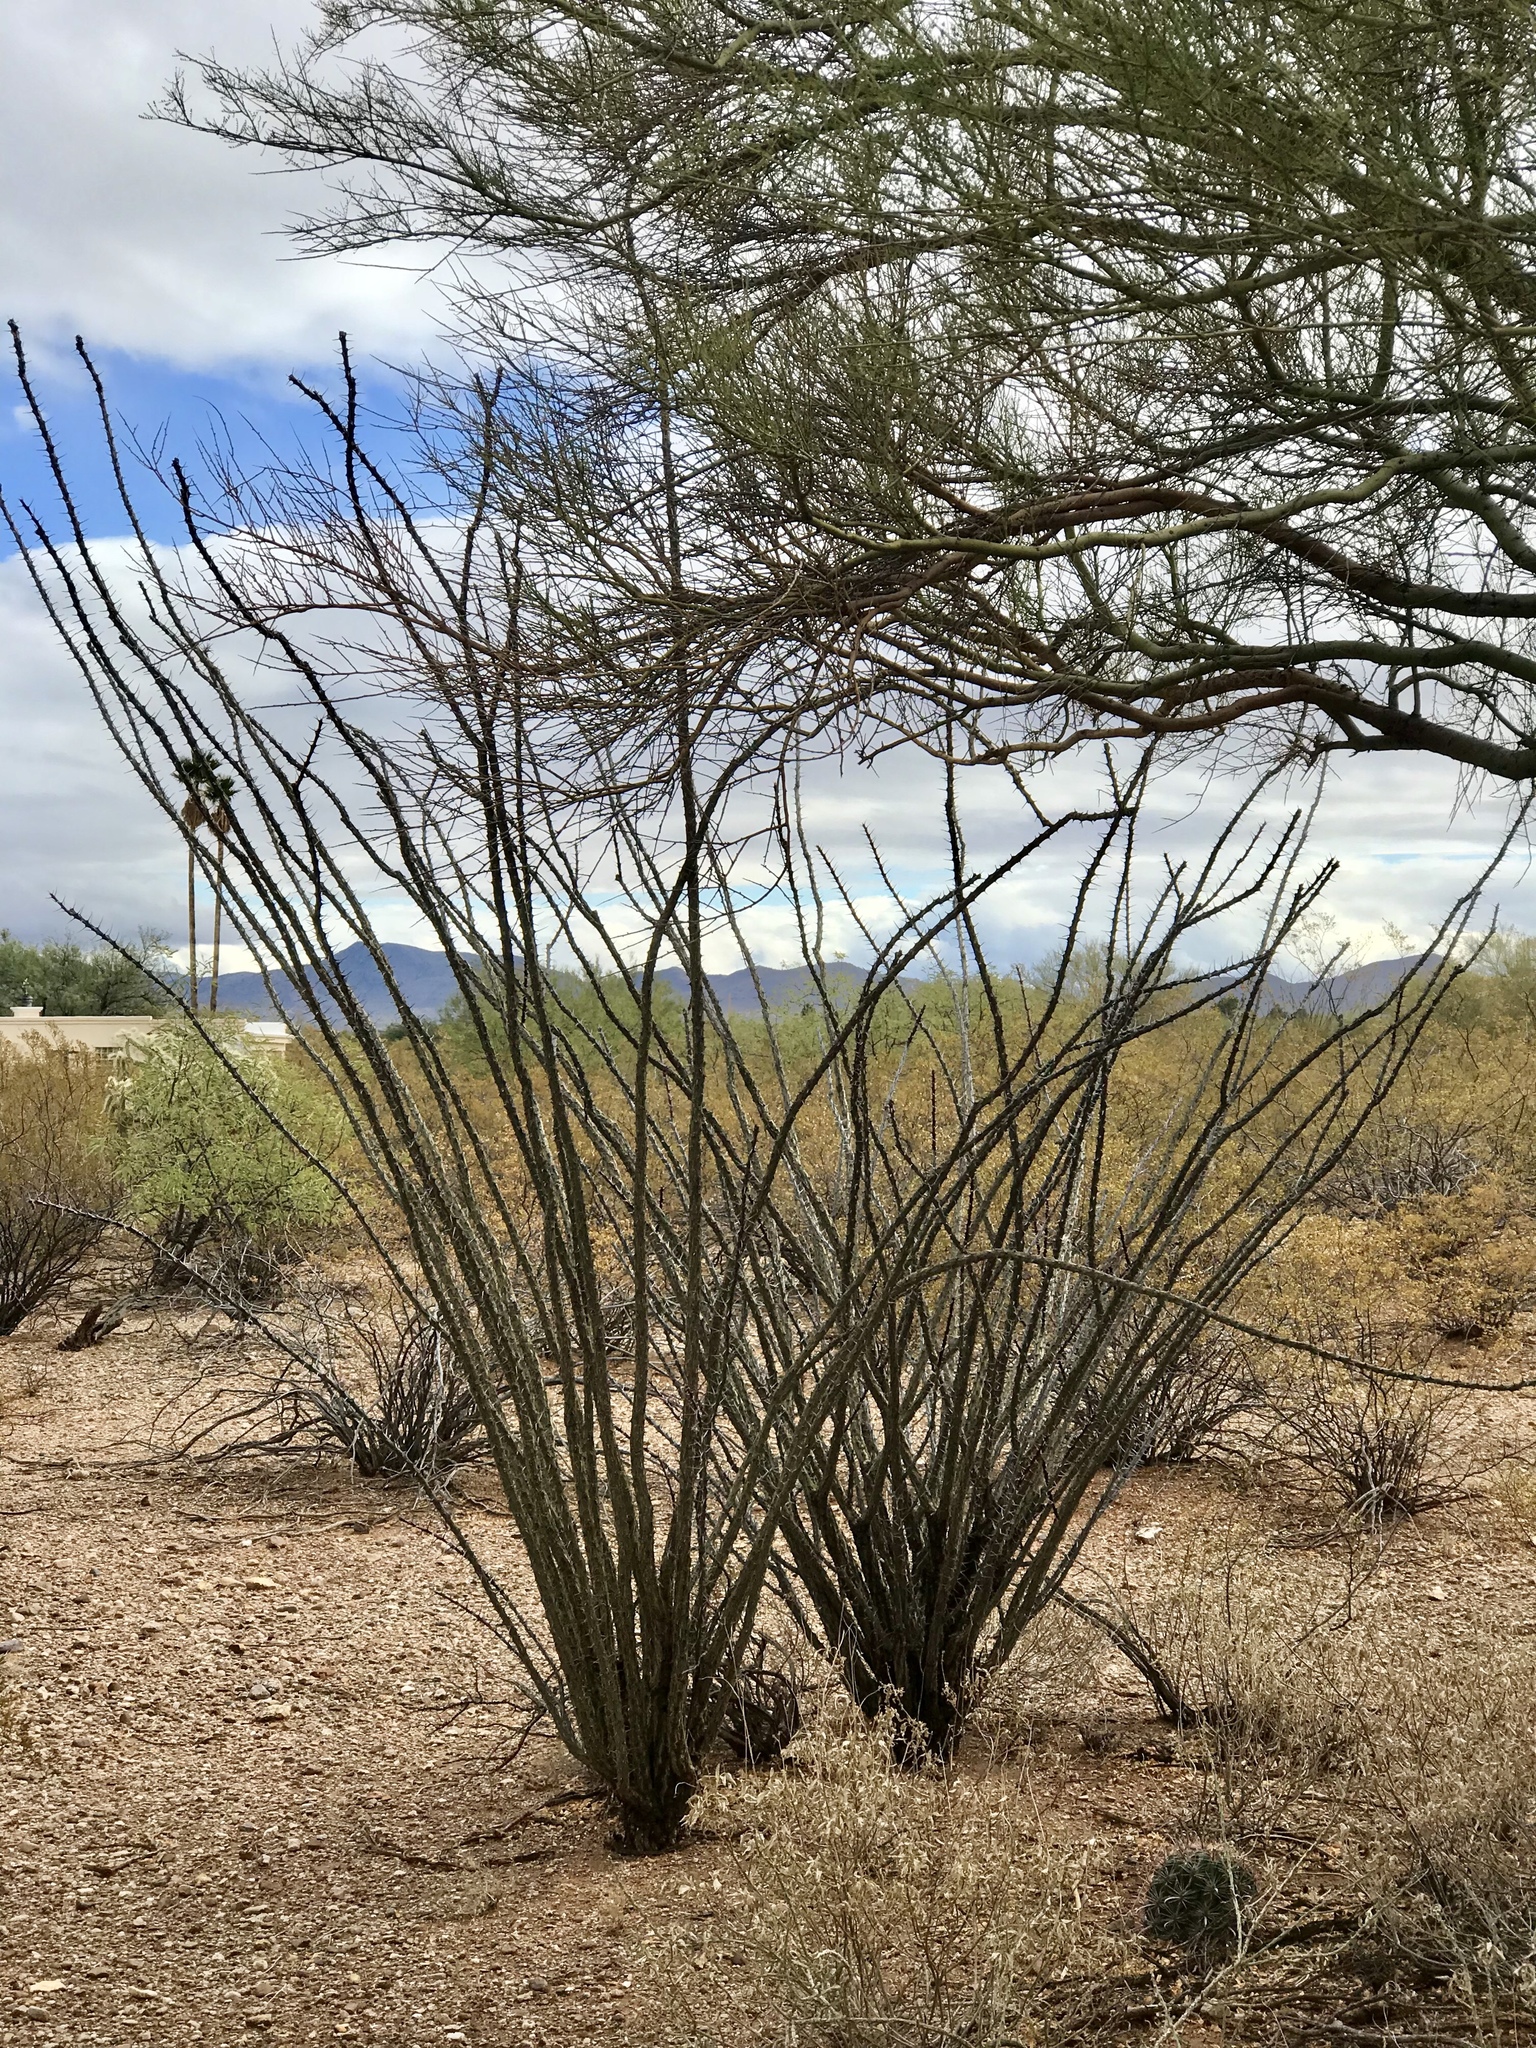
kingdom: Plantae
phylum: Tracheophyta
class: Magnoliopsida
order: Ericales
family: Fouquieriaceae
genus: Fouquieria
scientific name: Fouquieria splendens
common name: Vine-cactus
